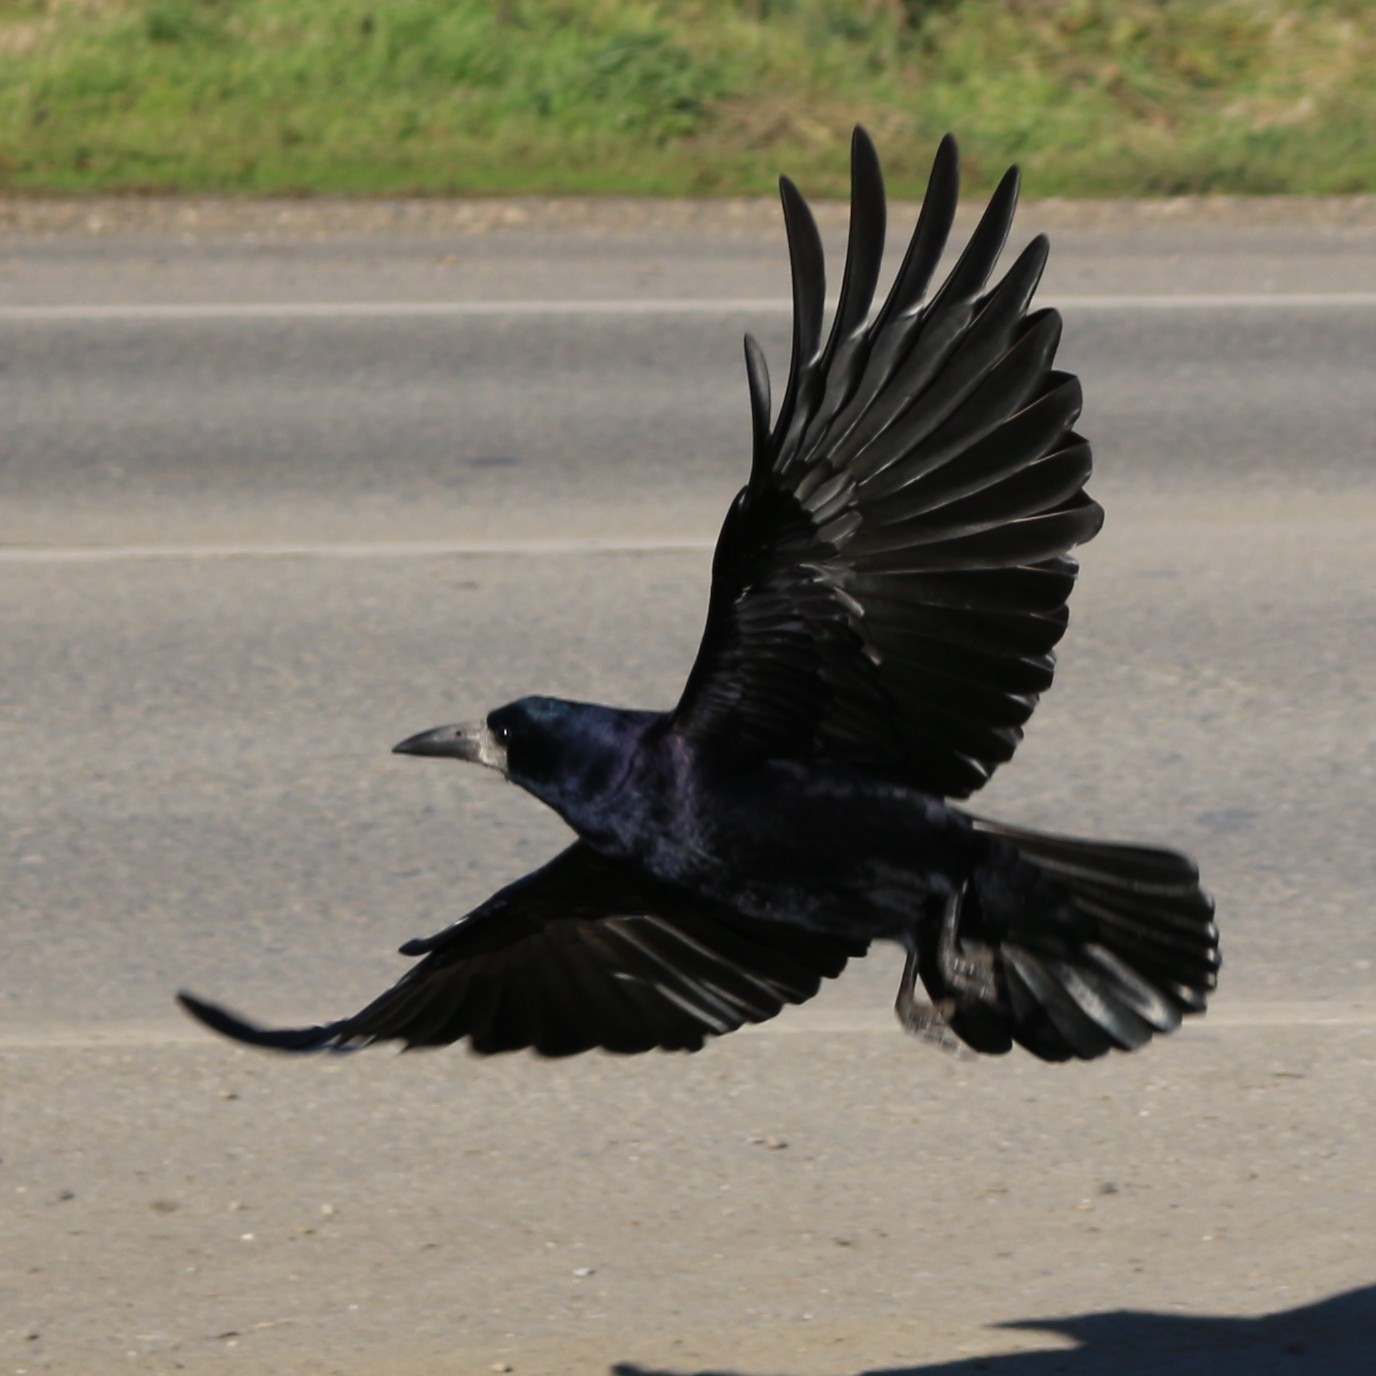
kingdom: Animalia
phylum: Chordata
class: Aves
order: Passeriformes
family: Corvidae
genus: Corvus
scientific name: Corvus frugilegus
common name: Rook
